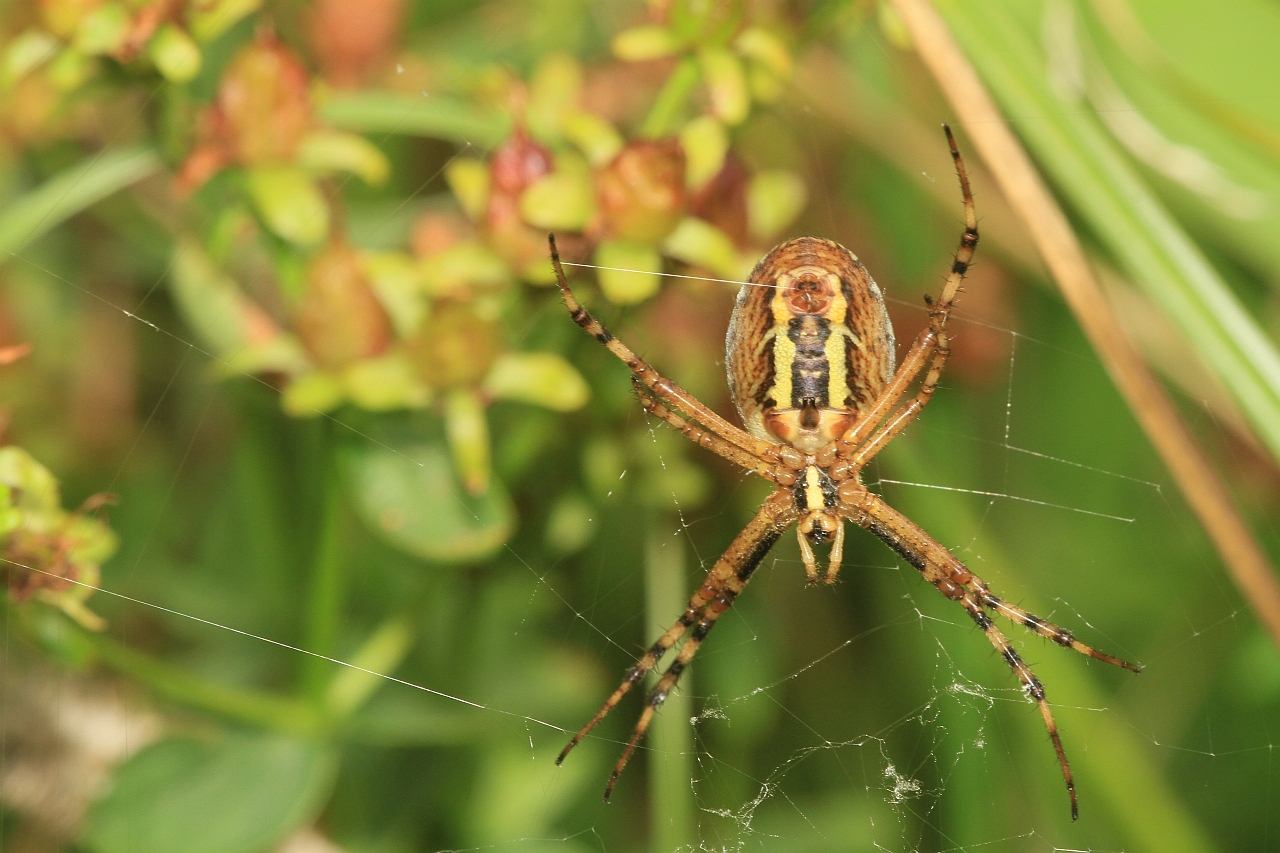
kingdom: Animalia
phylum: Arthropoda
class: Arachnida
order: Araneae
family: Araneidae
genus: Argiope
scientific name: Argiope bruennichi
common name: Wasp spider
